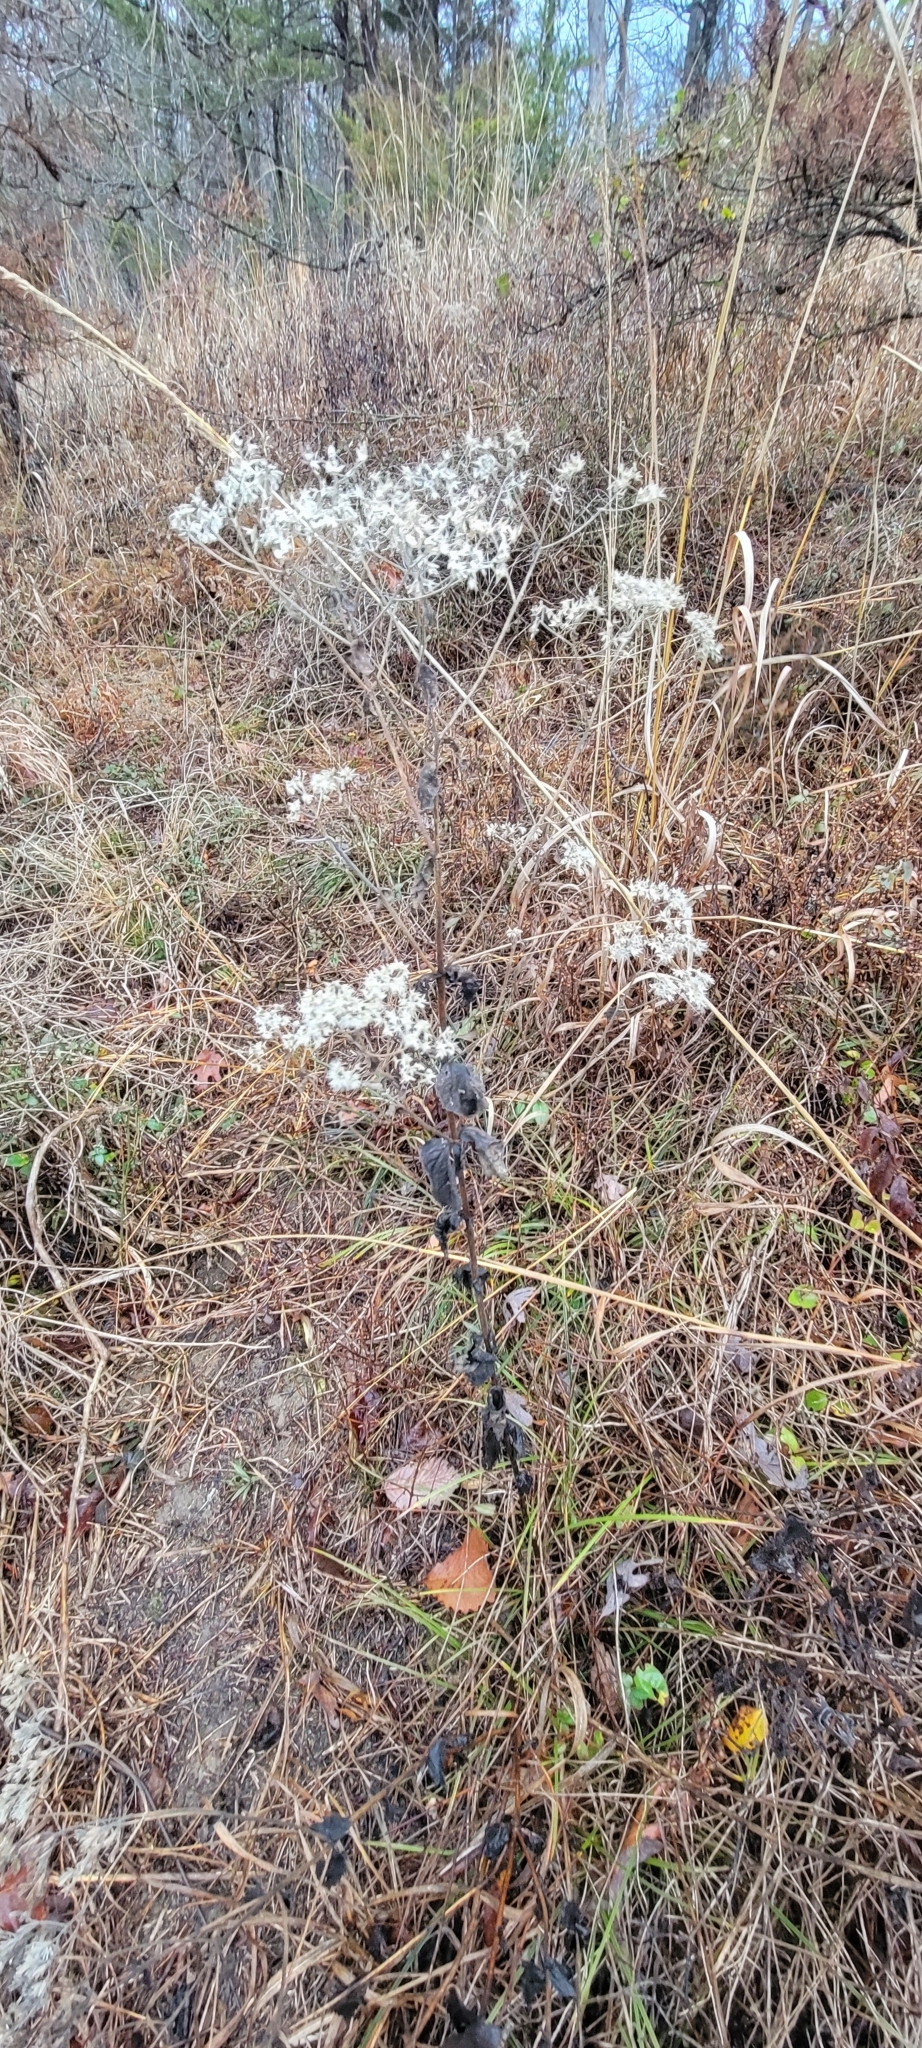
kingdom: Plantae
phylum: Tracheophyta
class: Magnoliopsida
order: Asterales
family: Asteraceae
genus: Eupatorium
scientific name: Eupatorium rotundifolium
